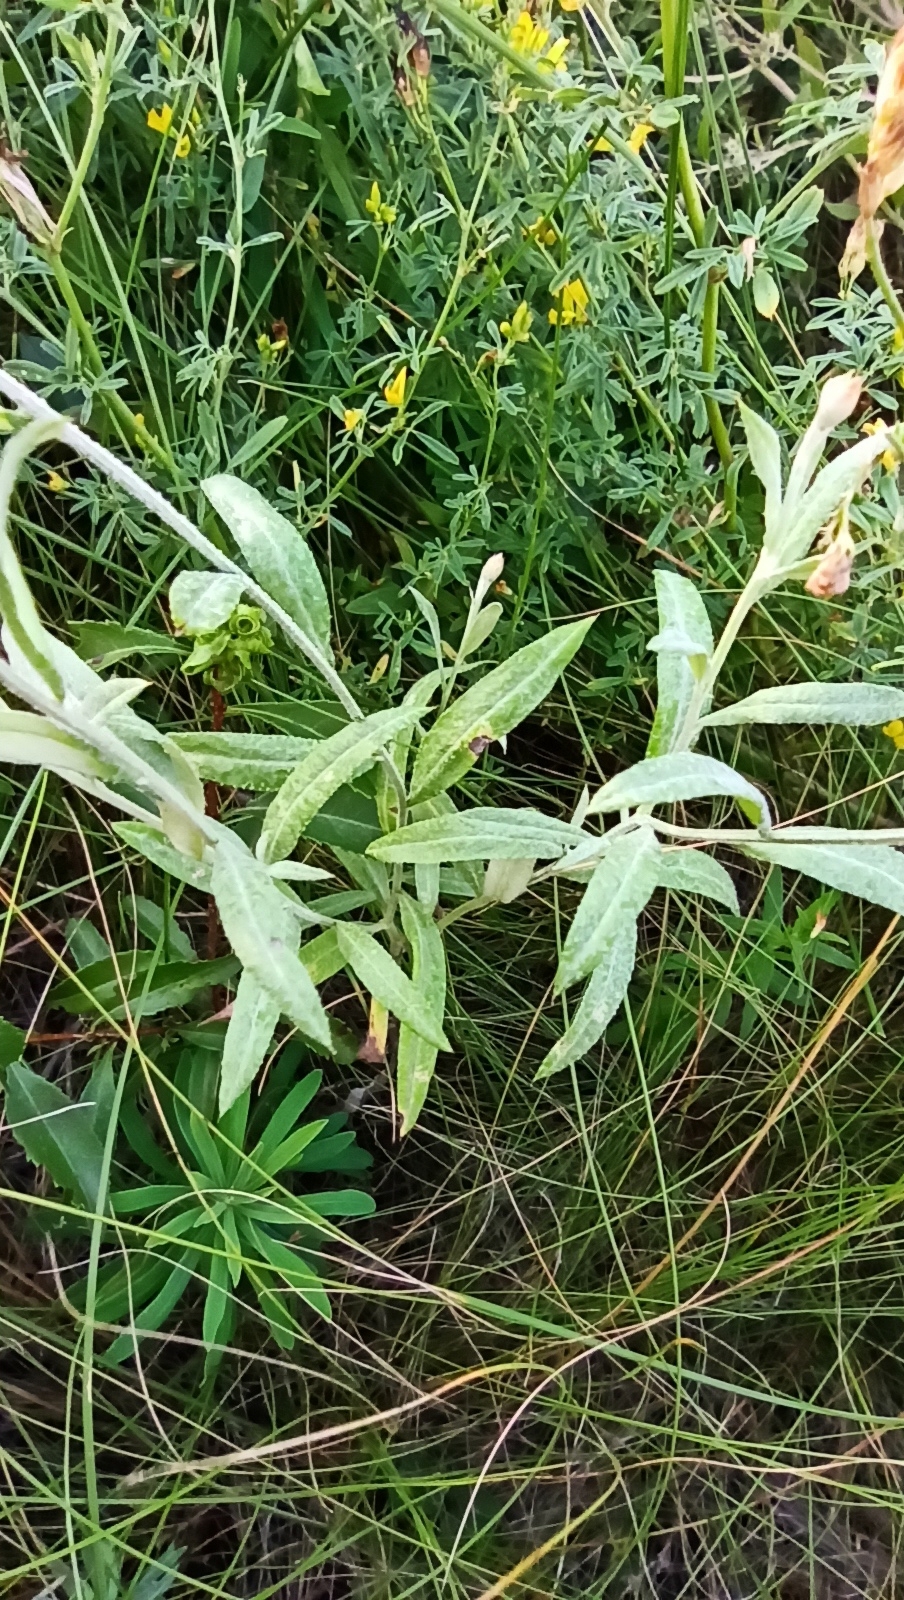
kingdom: Plantae
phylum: Tracheophyta
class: Magnoliopsida
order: Asterales
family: Asteraceae
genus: Xeranthemum
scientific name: Xeranthemum annuum
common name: Immortelle
